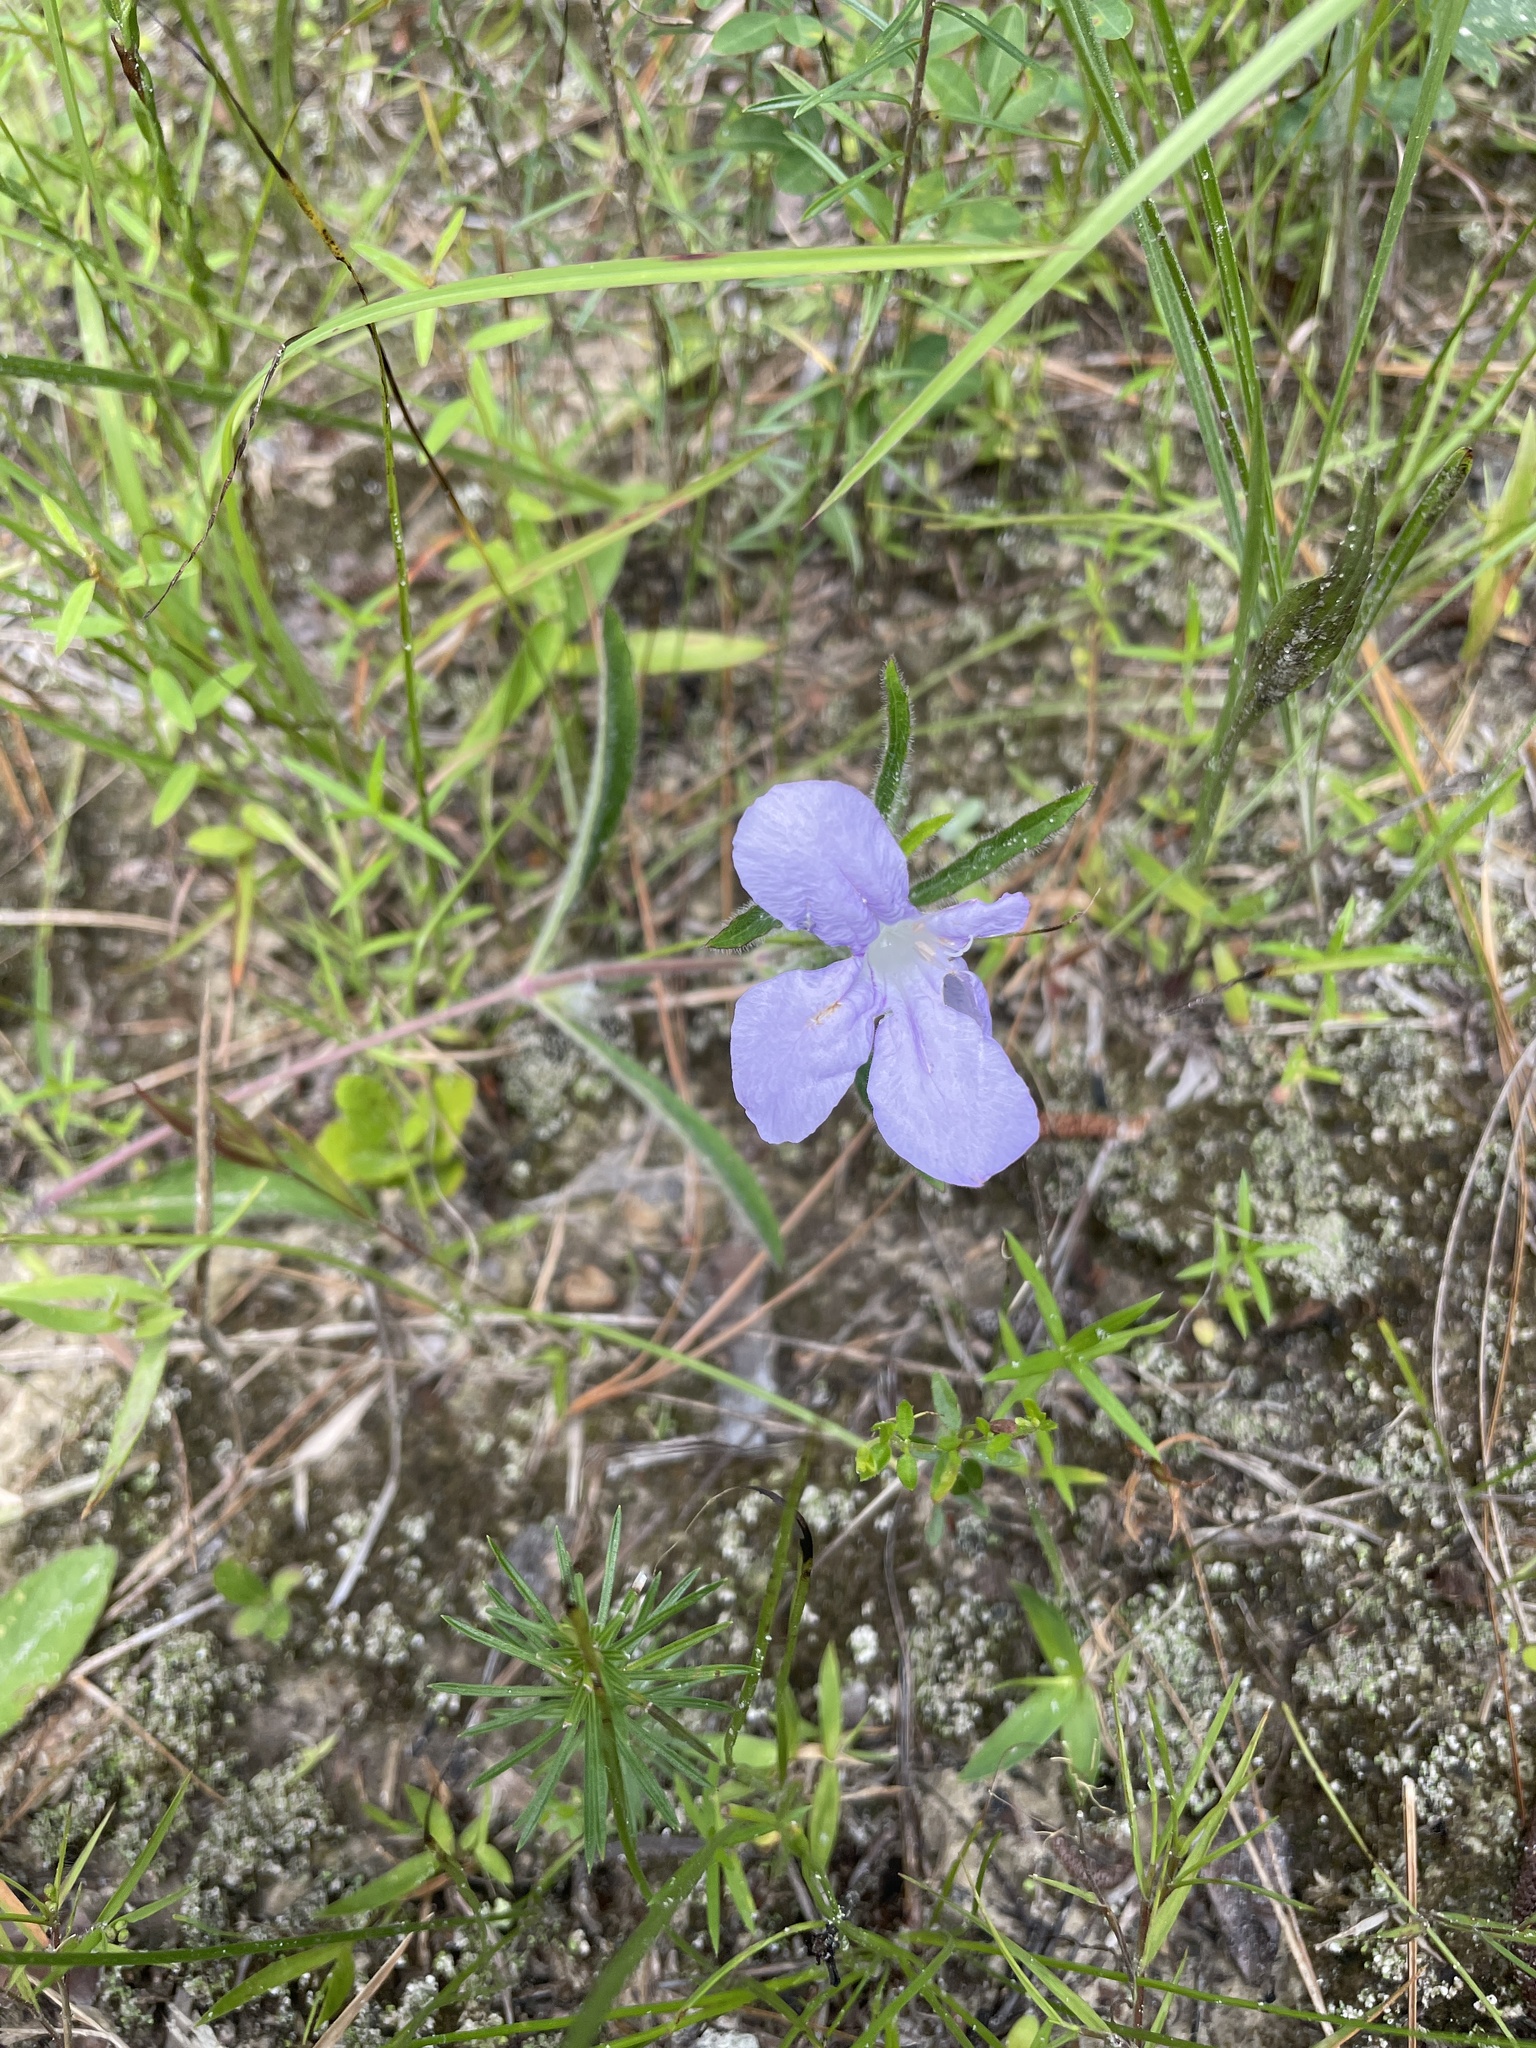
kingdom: Plantae
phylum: Tracheophyta
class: Magnoliopsida
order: Lamiales
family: Acanthaceae
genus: Ruellia
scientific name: Ruellia caroliniensis
